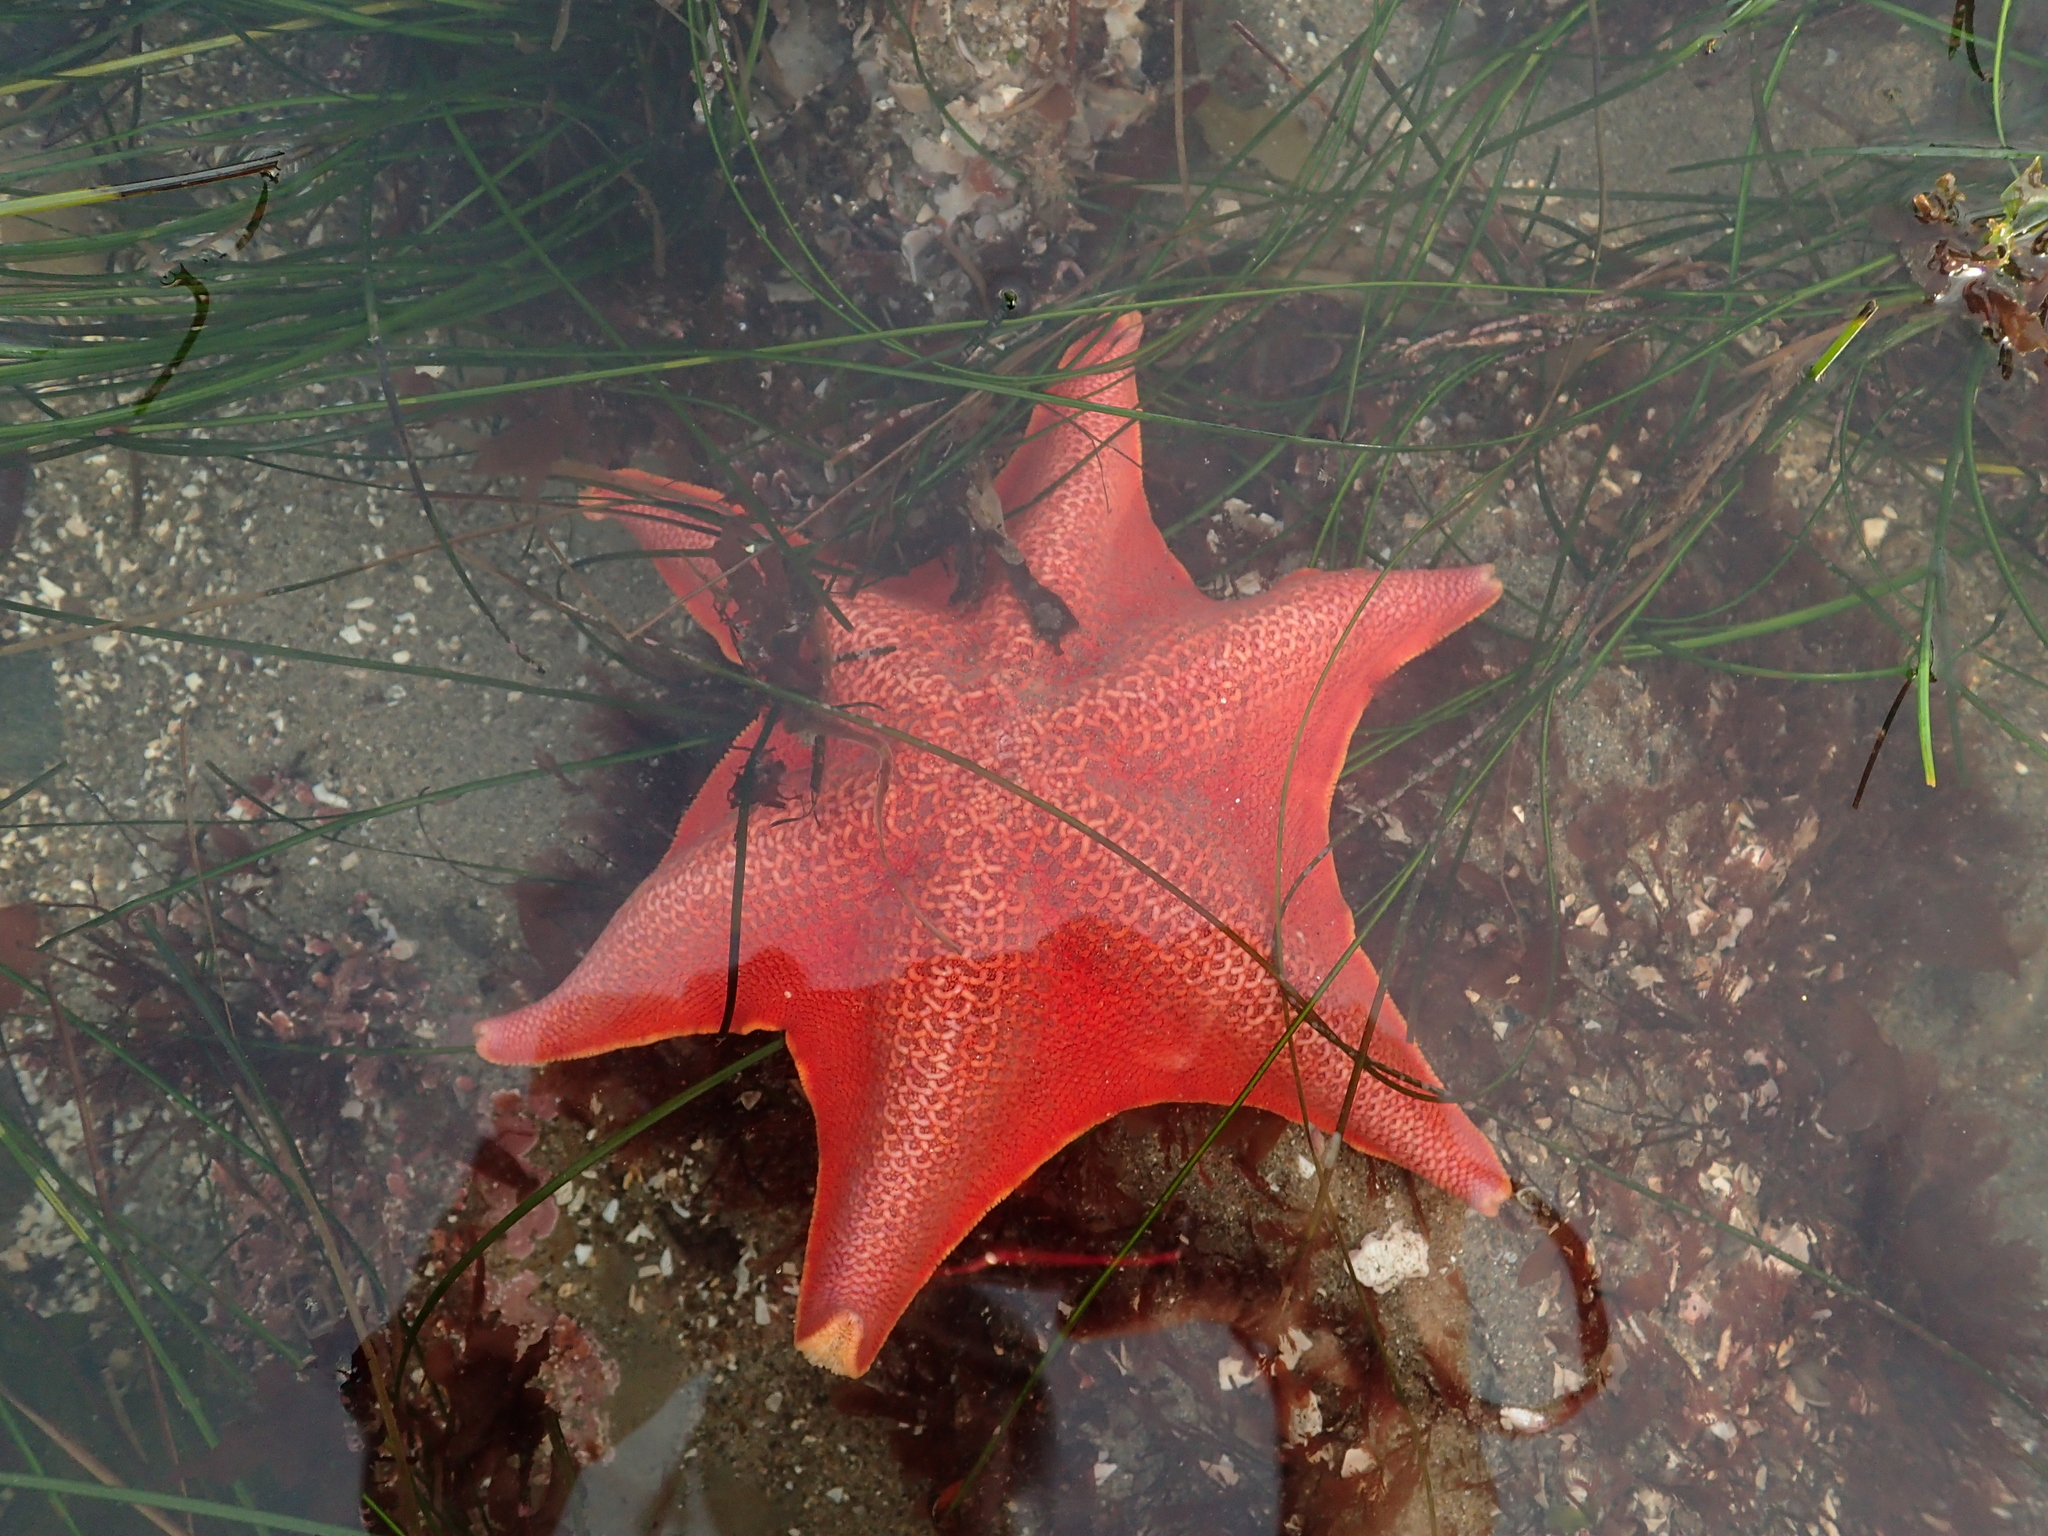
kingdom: Animalia
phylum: Echinodermata
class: Asteroidea
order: Valvatida
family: Asterinidae
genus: Patiria
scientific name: Patiria miniata
